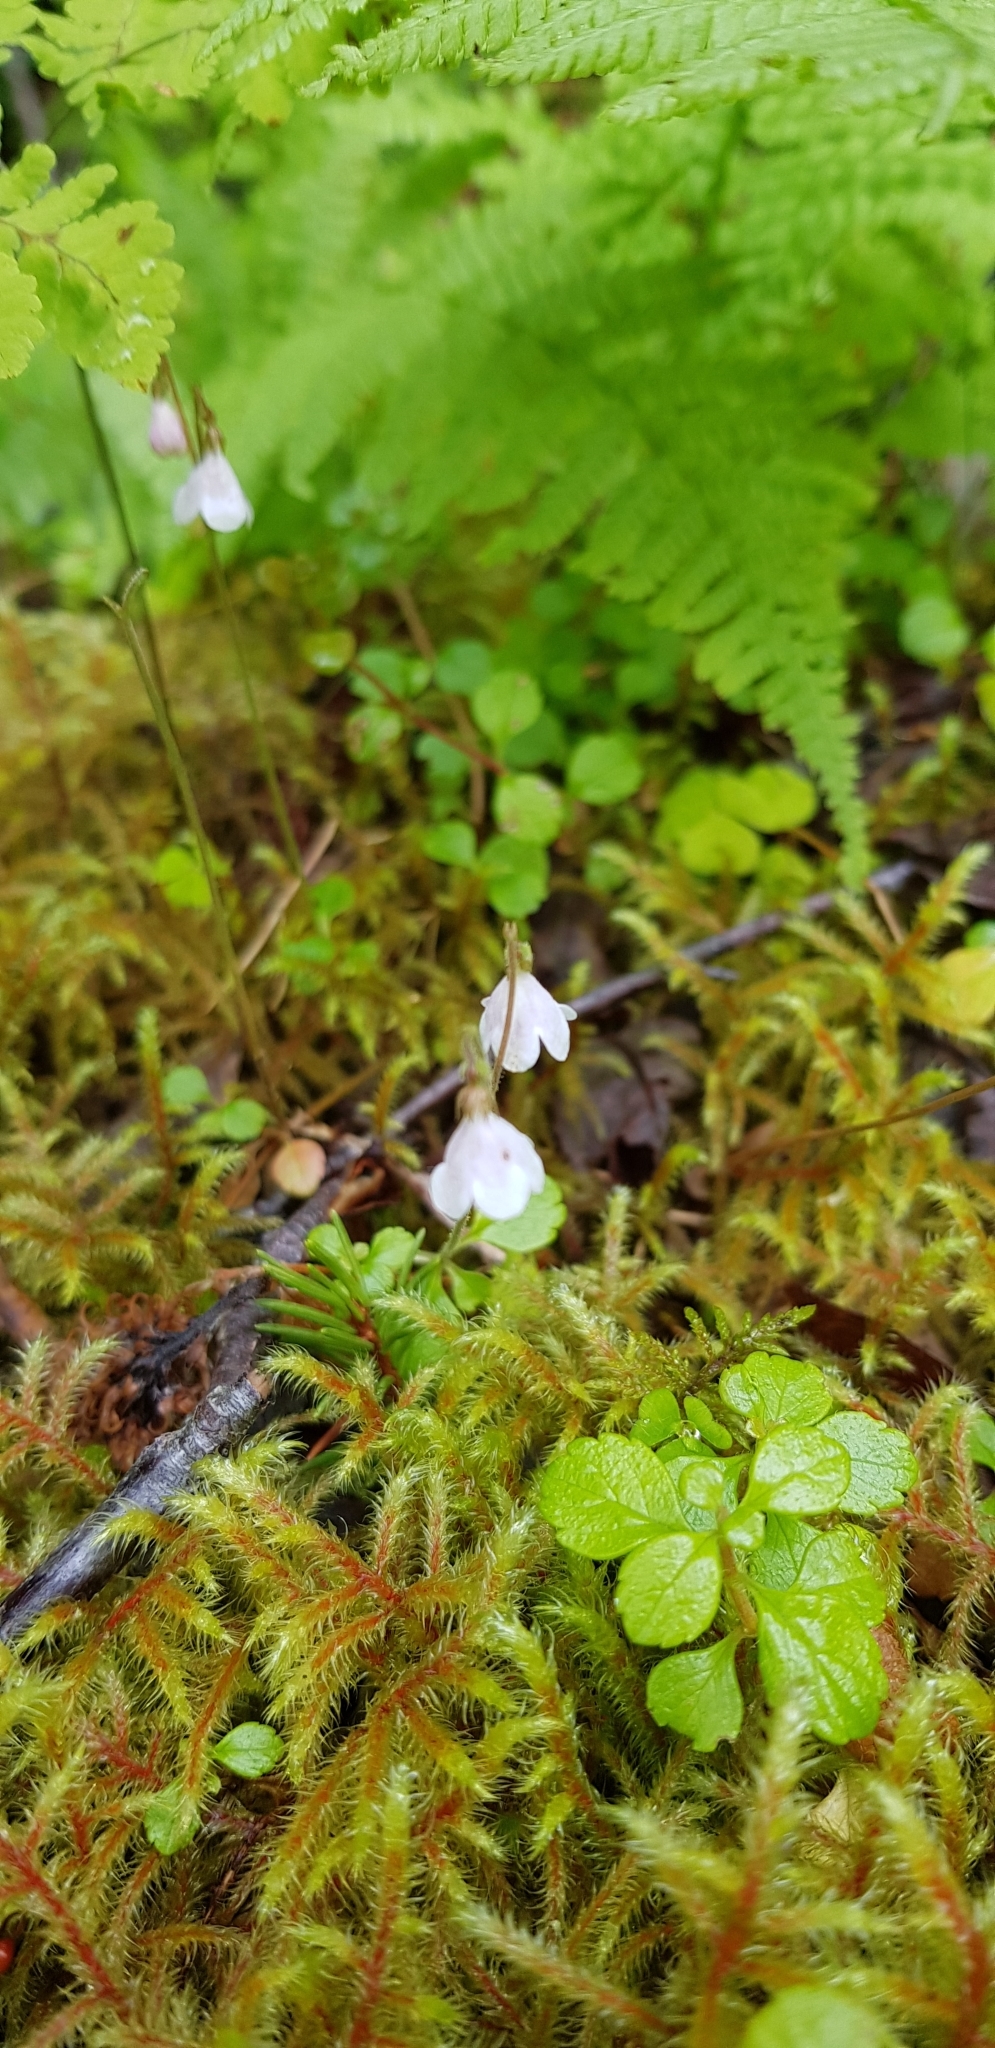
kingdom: Plantae
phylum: Tracheophyta
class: Magnoliopsida
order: Dipsacales
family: Caprifoliaceae
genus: Linnaea
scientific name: Linnaea borealis
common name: Twinflower
